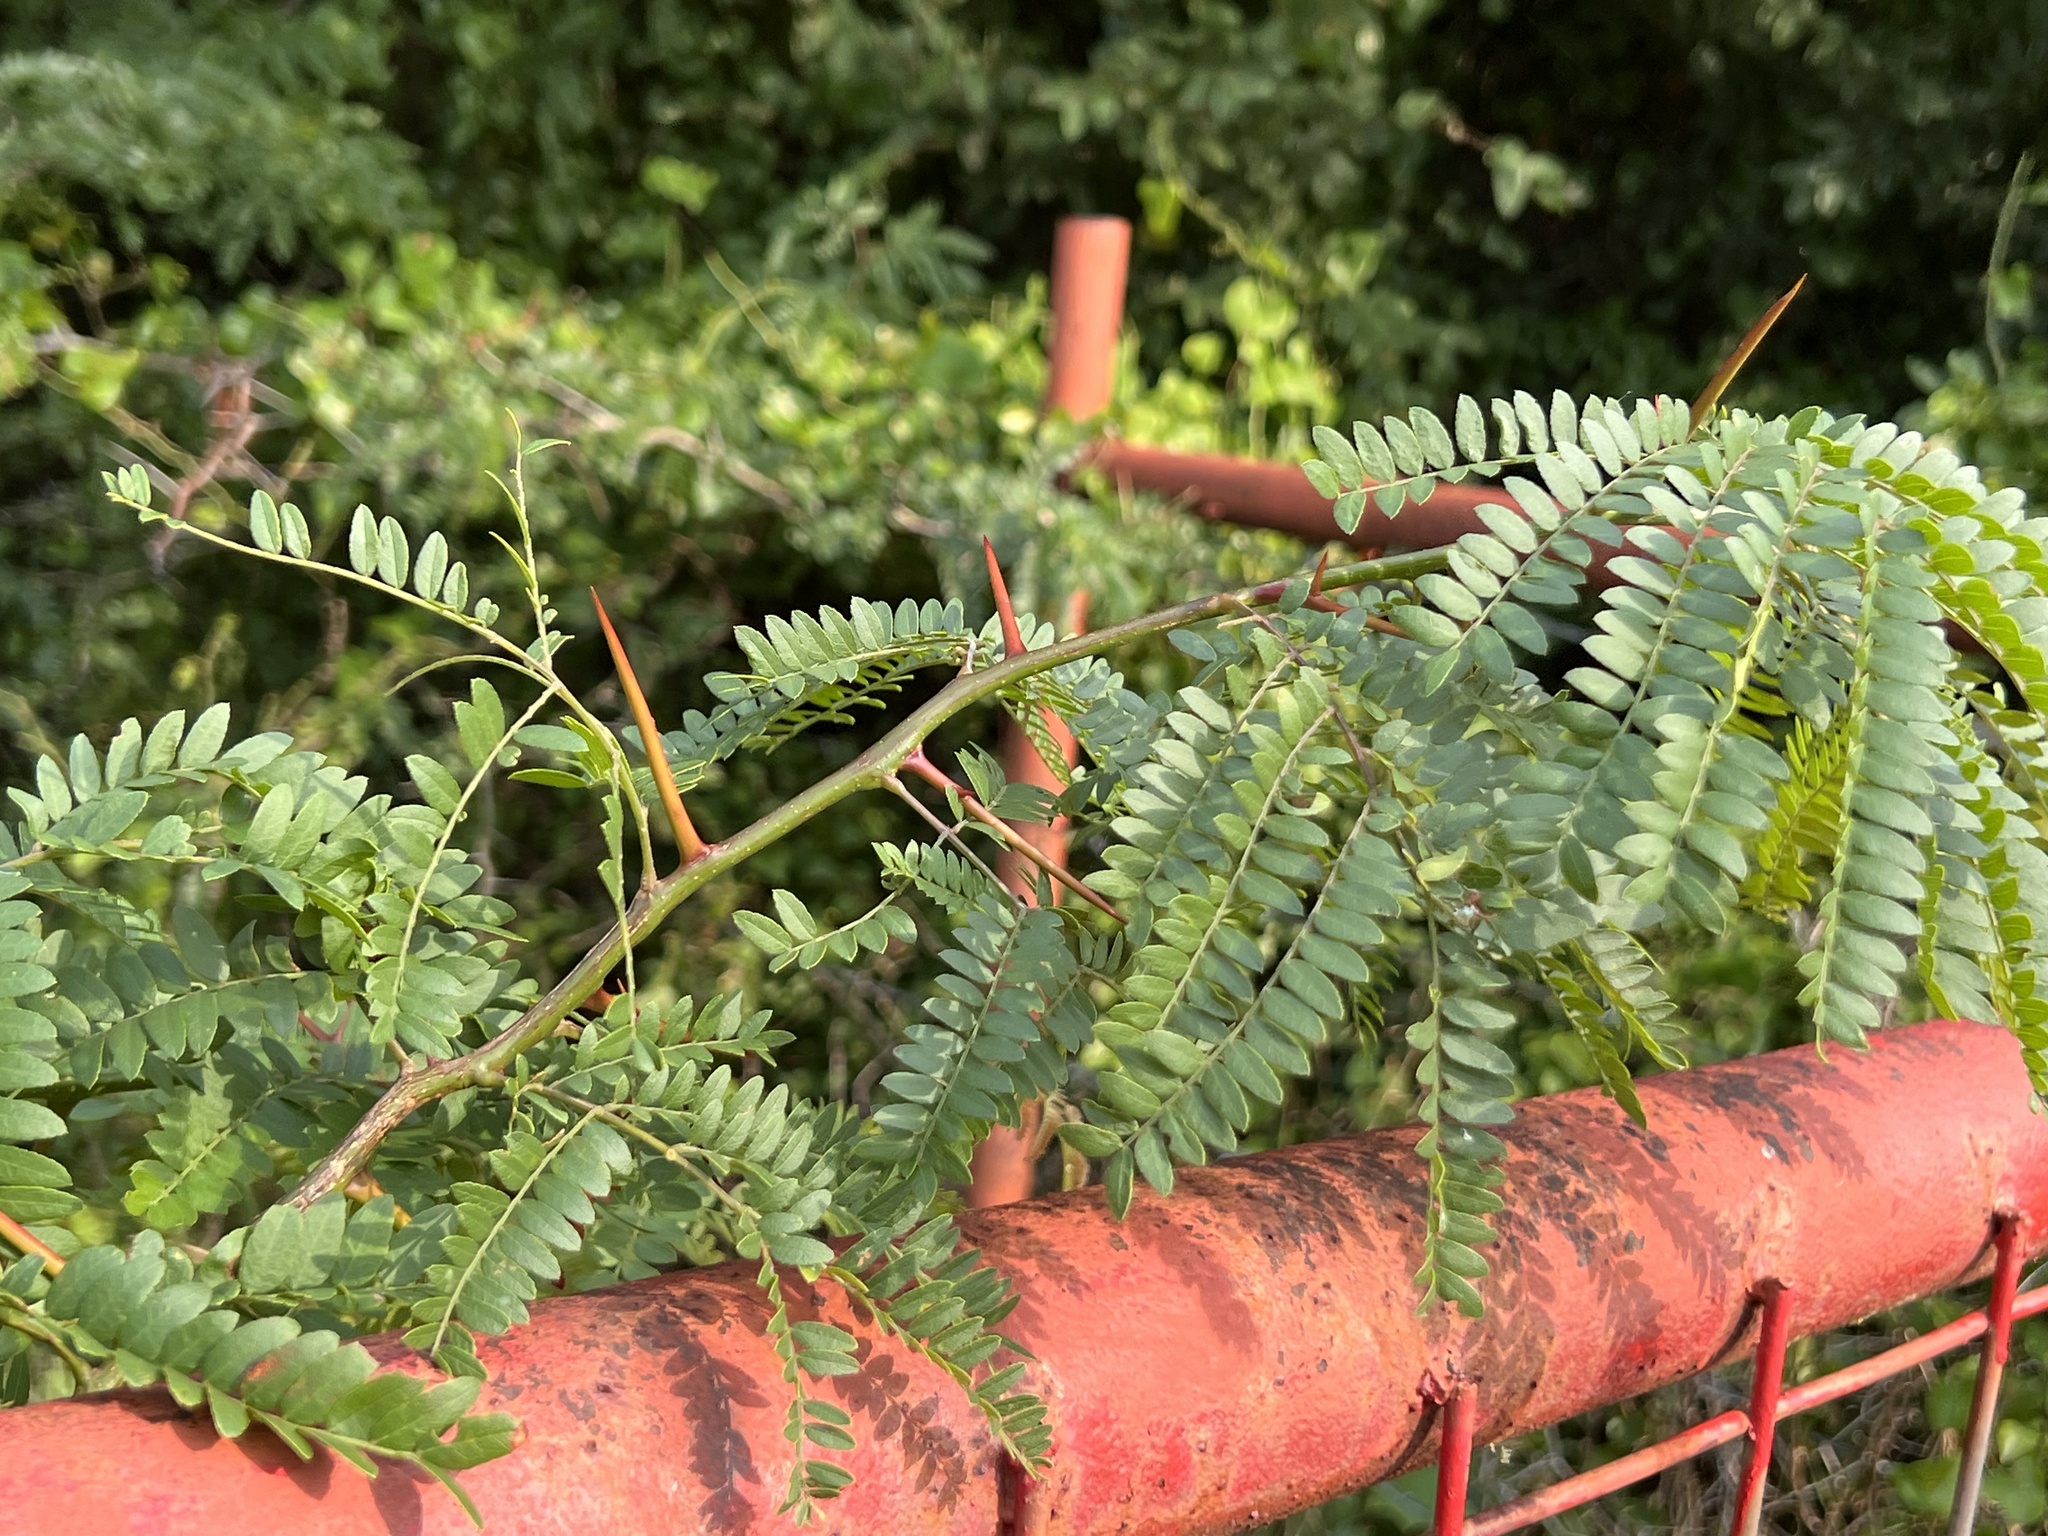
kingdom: Plantae
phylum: Tracheophyta
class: Magnoliopsida
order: Fabales
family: Fabaceae
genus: Gleditsia
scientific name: Gleditsia triacanthos
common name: Common honeylocust
